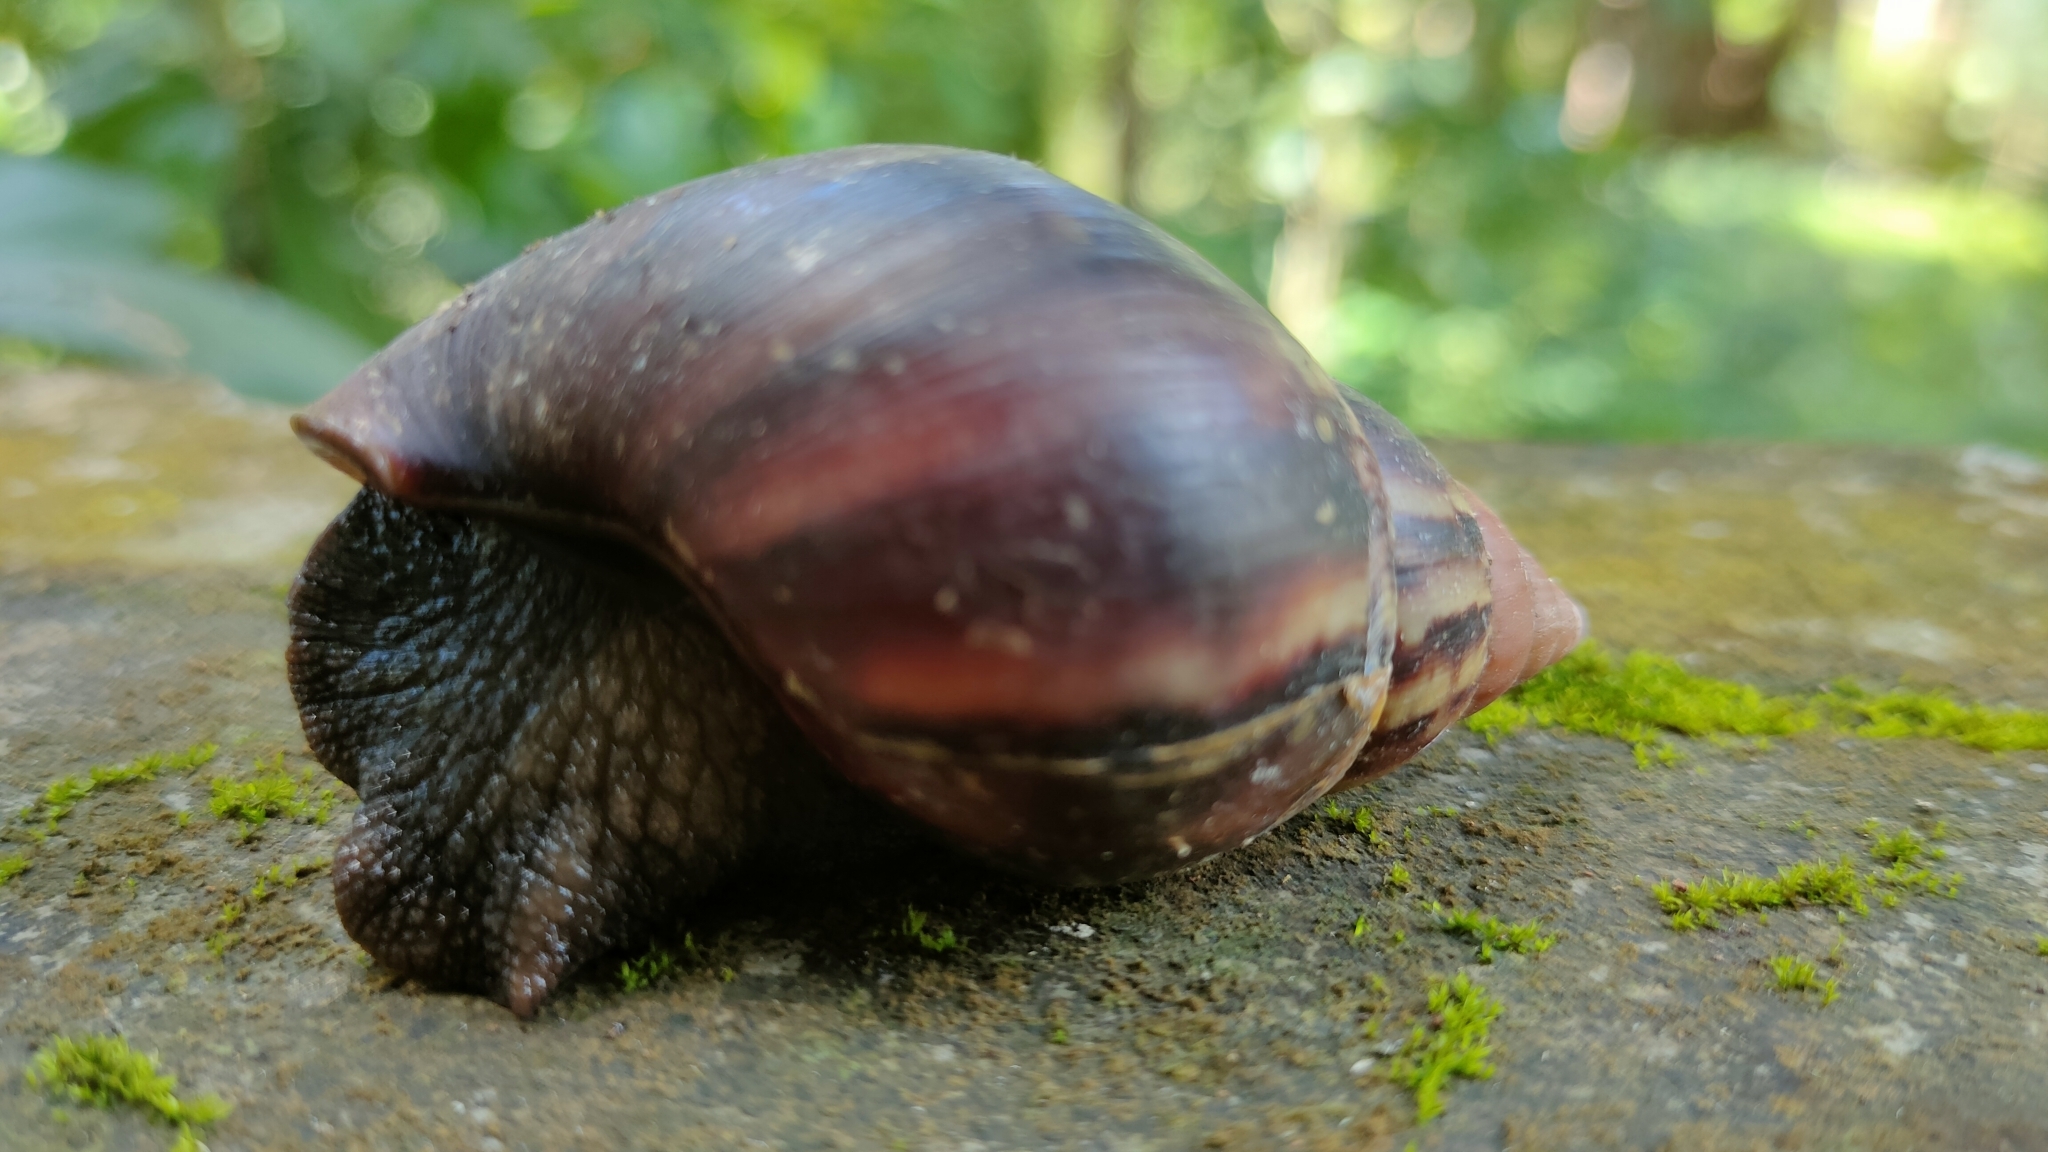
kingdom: Animalia
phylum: Mollusca
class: Gastropoda
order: Stylommatophora
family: Achatinidae
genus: Lissachatina
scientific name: Lissachatina fulica
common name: Giant african snail
